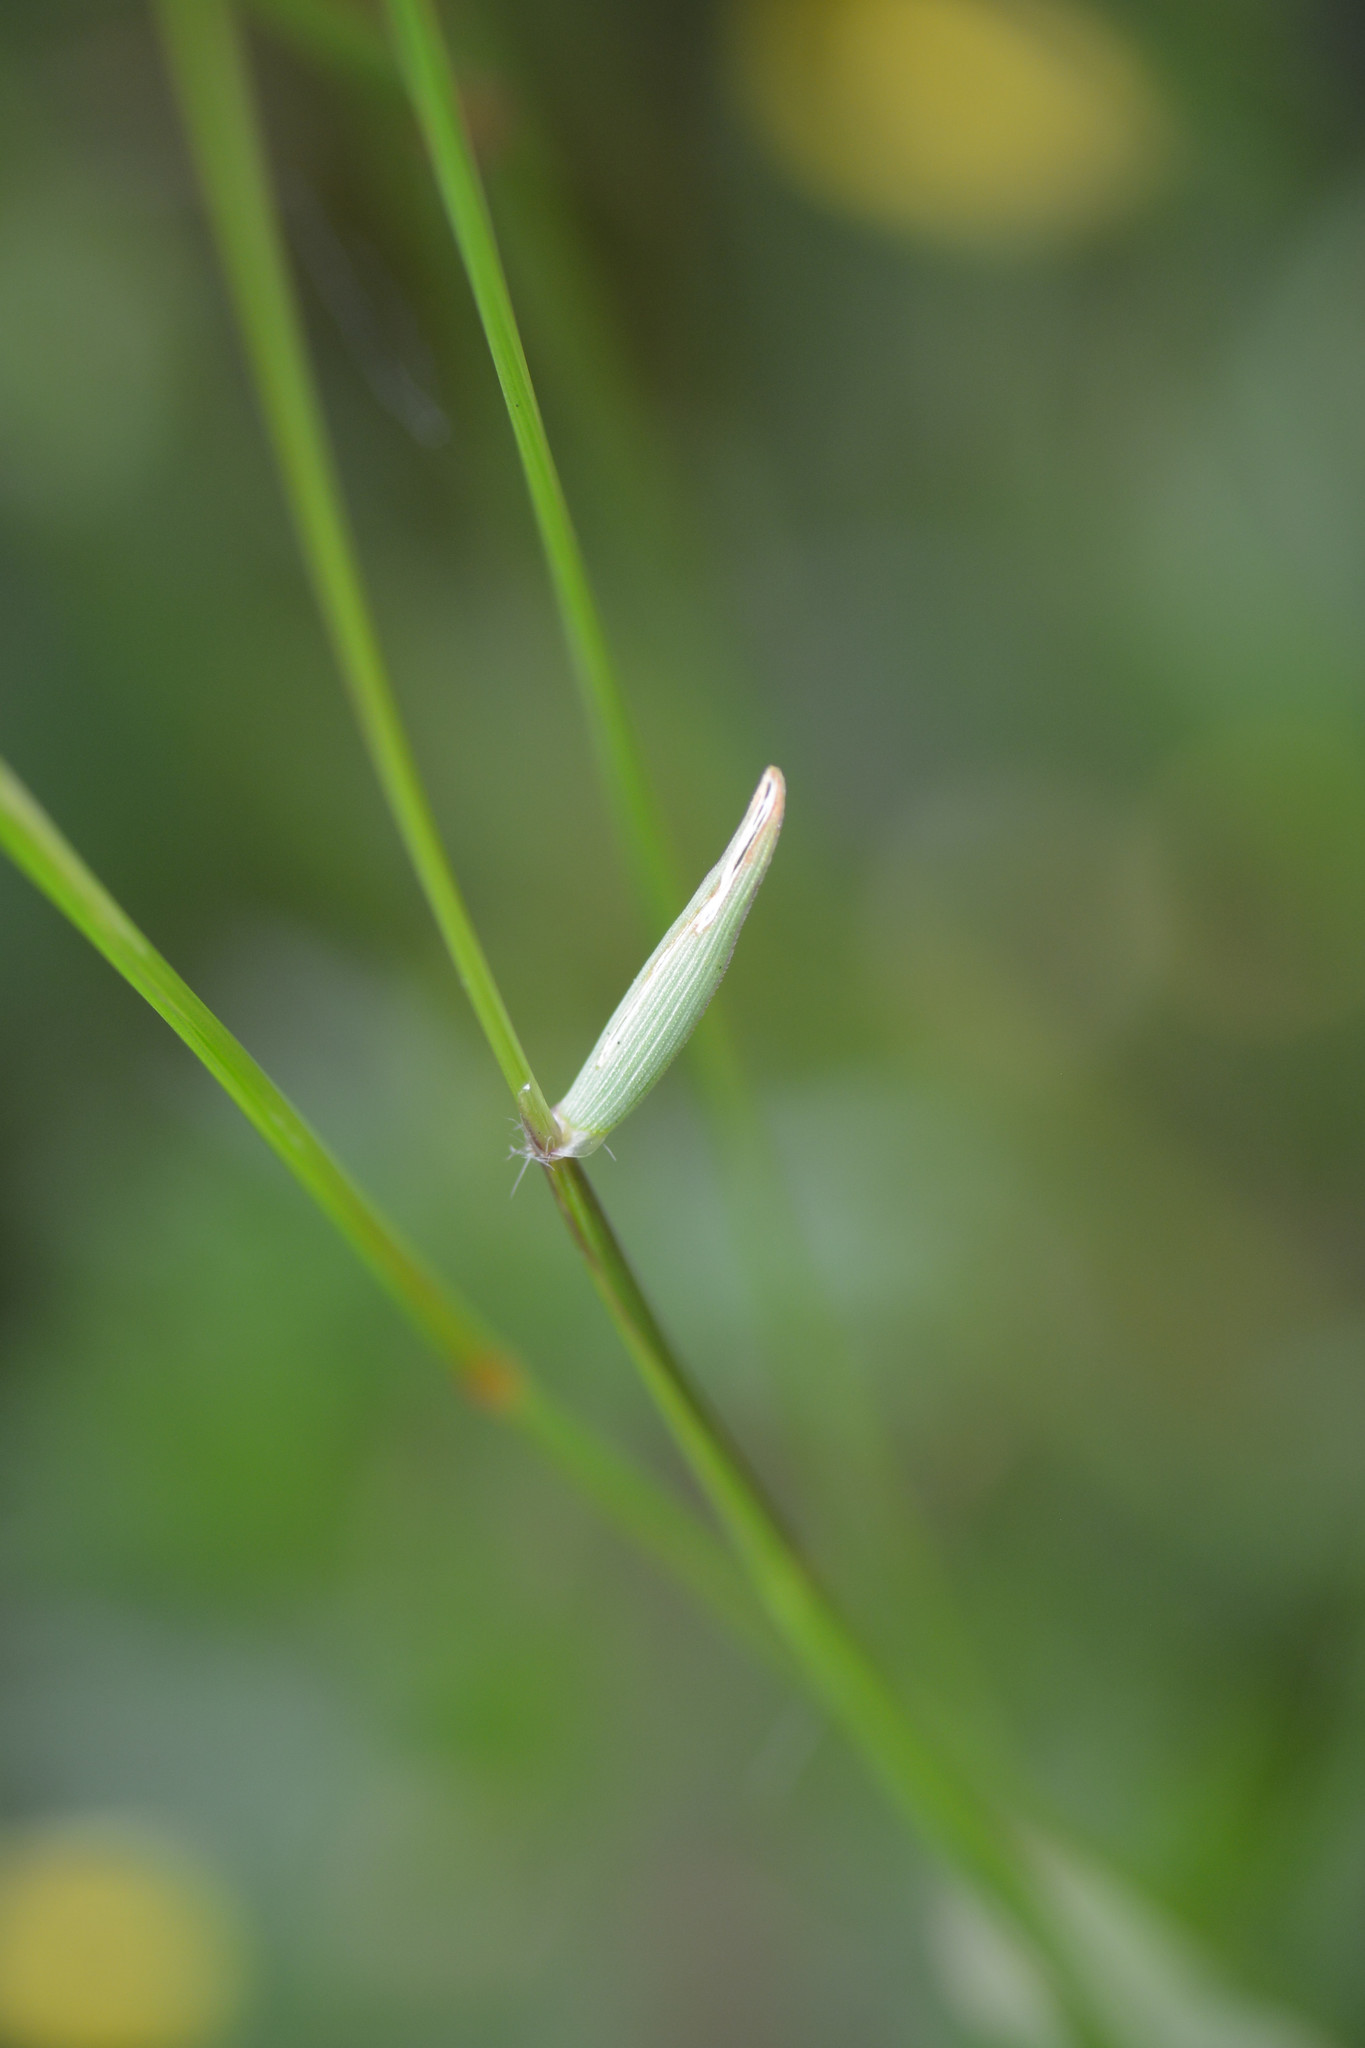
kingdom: Plantae
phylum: Tracheophyta
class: Liliopsida
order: Poales
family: Poaceae
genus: Anthoxanthum
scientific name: Anthoxanthum odoratum
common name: Sweet vernalgrass
